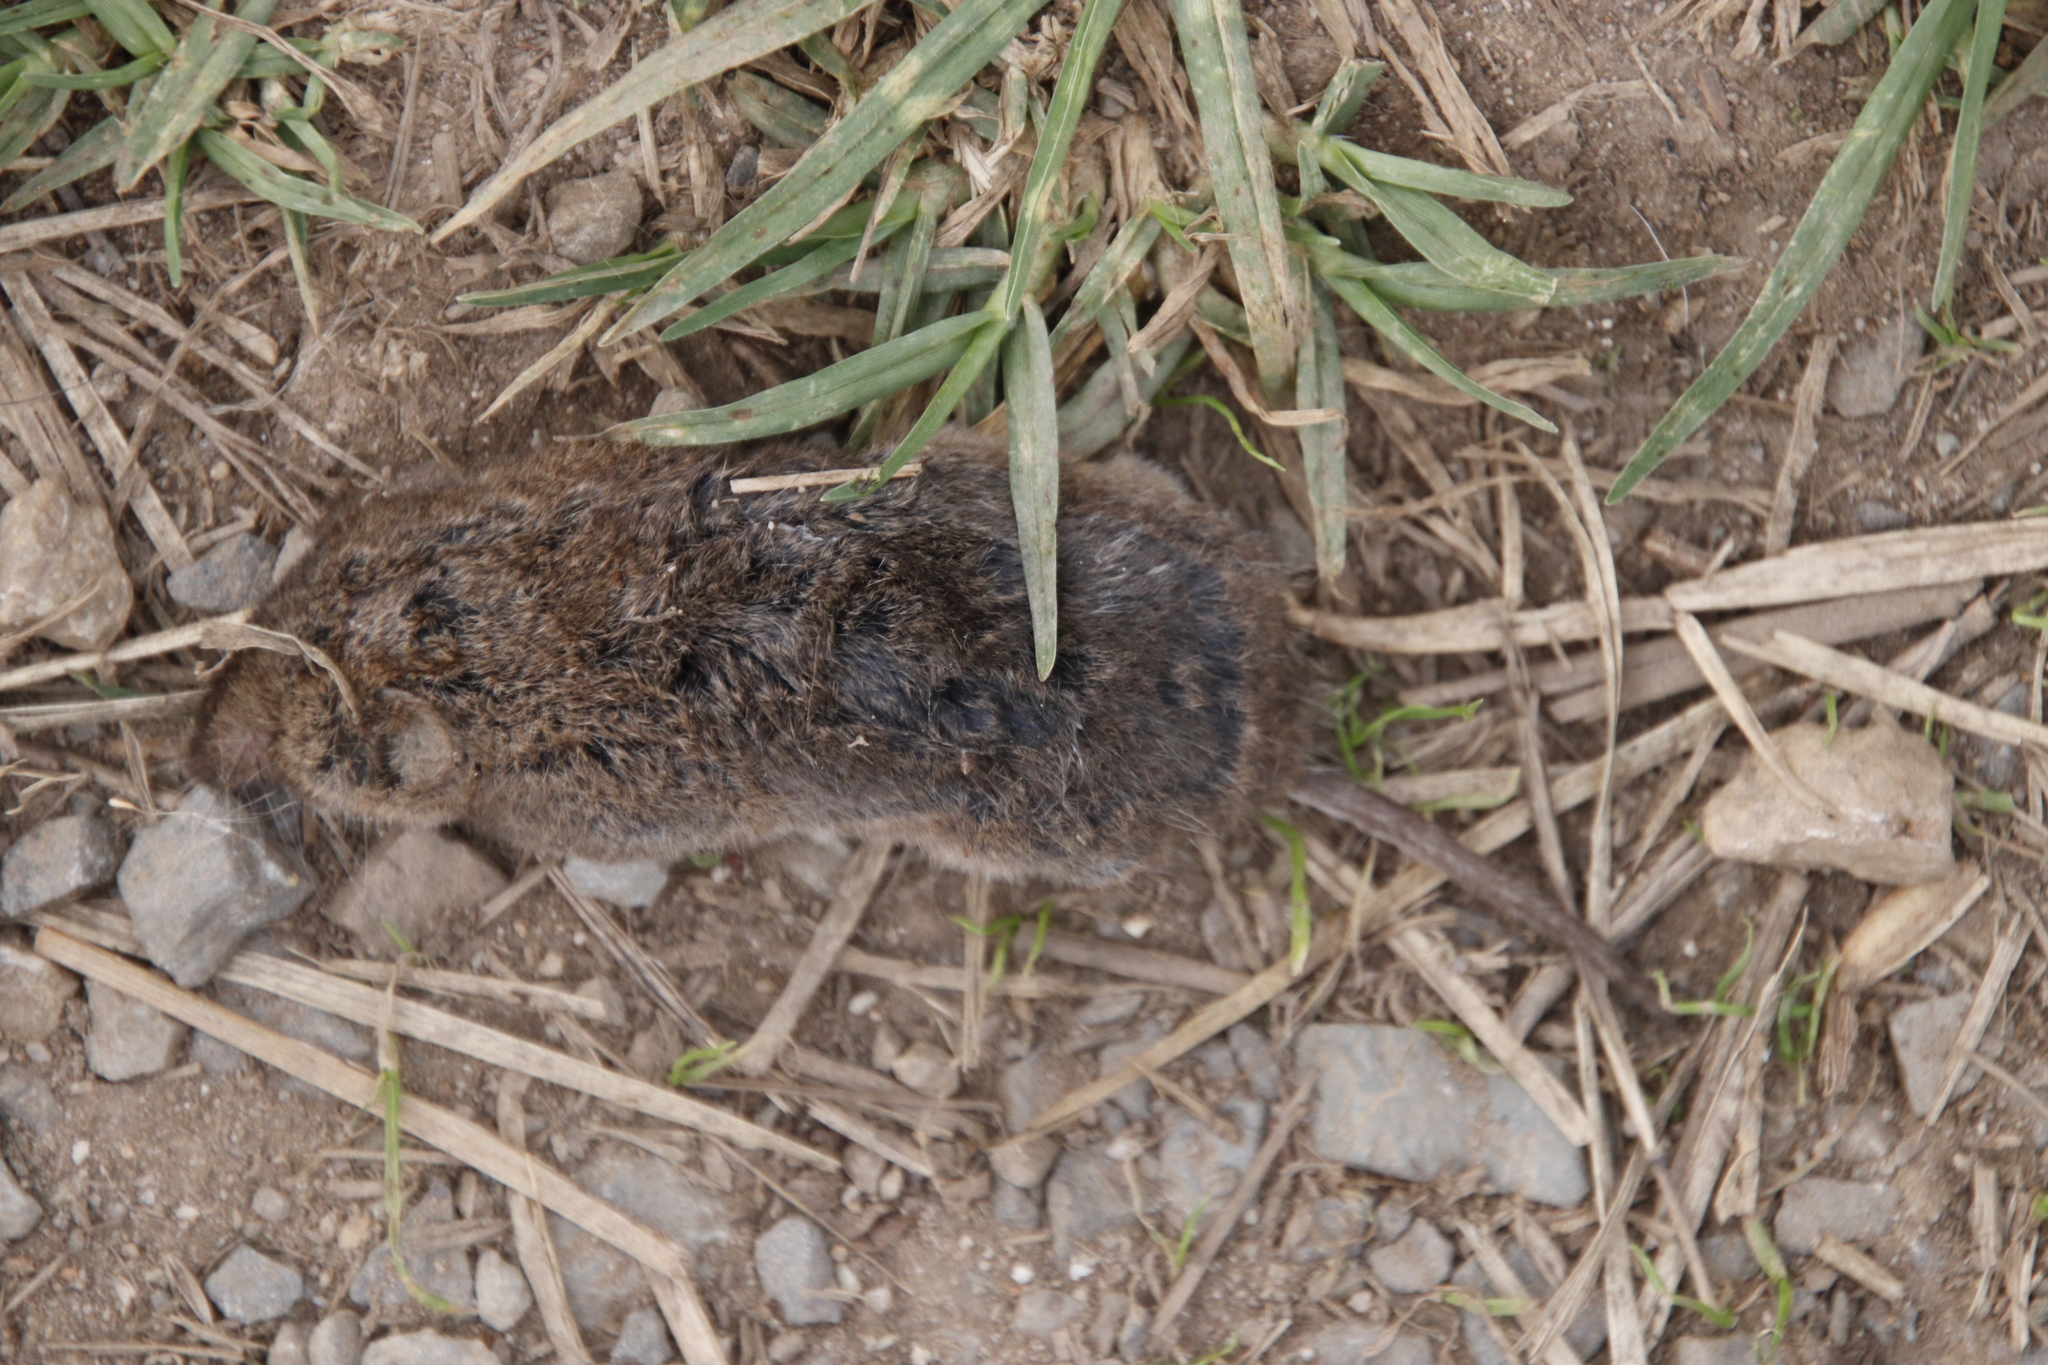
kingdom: Animalia
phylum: Chordata
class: Mammalia
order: Soricomorpha
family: Soricidae
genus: Myosorex
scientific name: Myosorex varius
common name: Forest shrew
